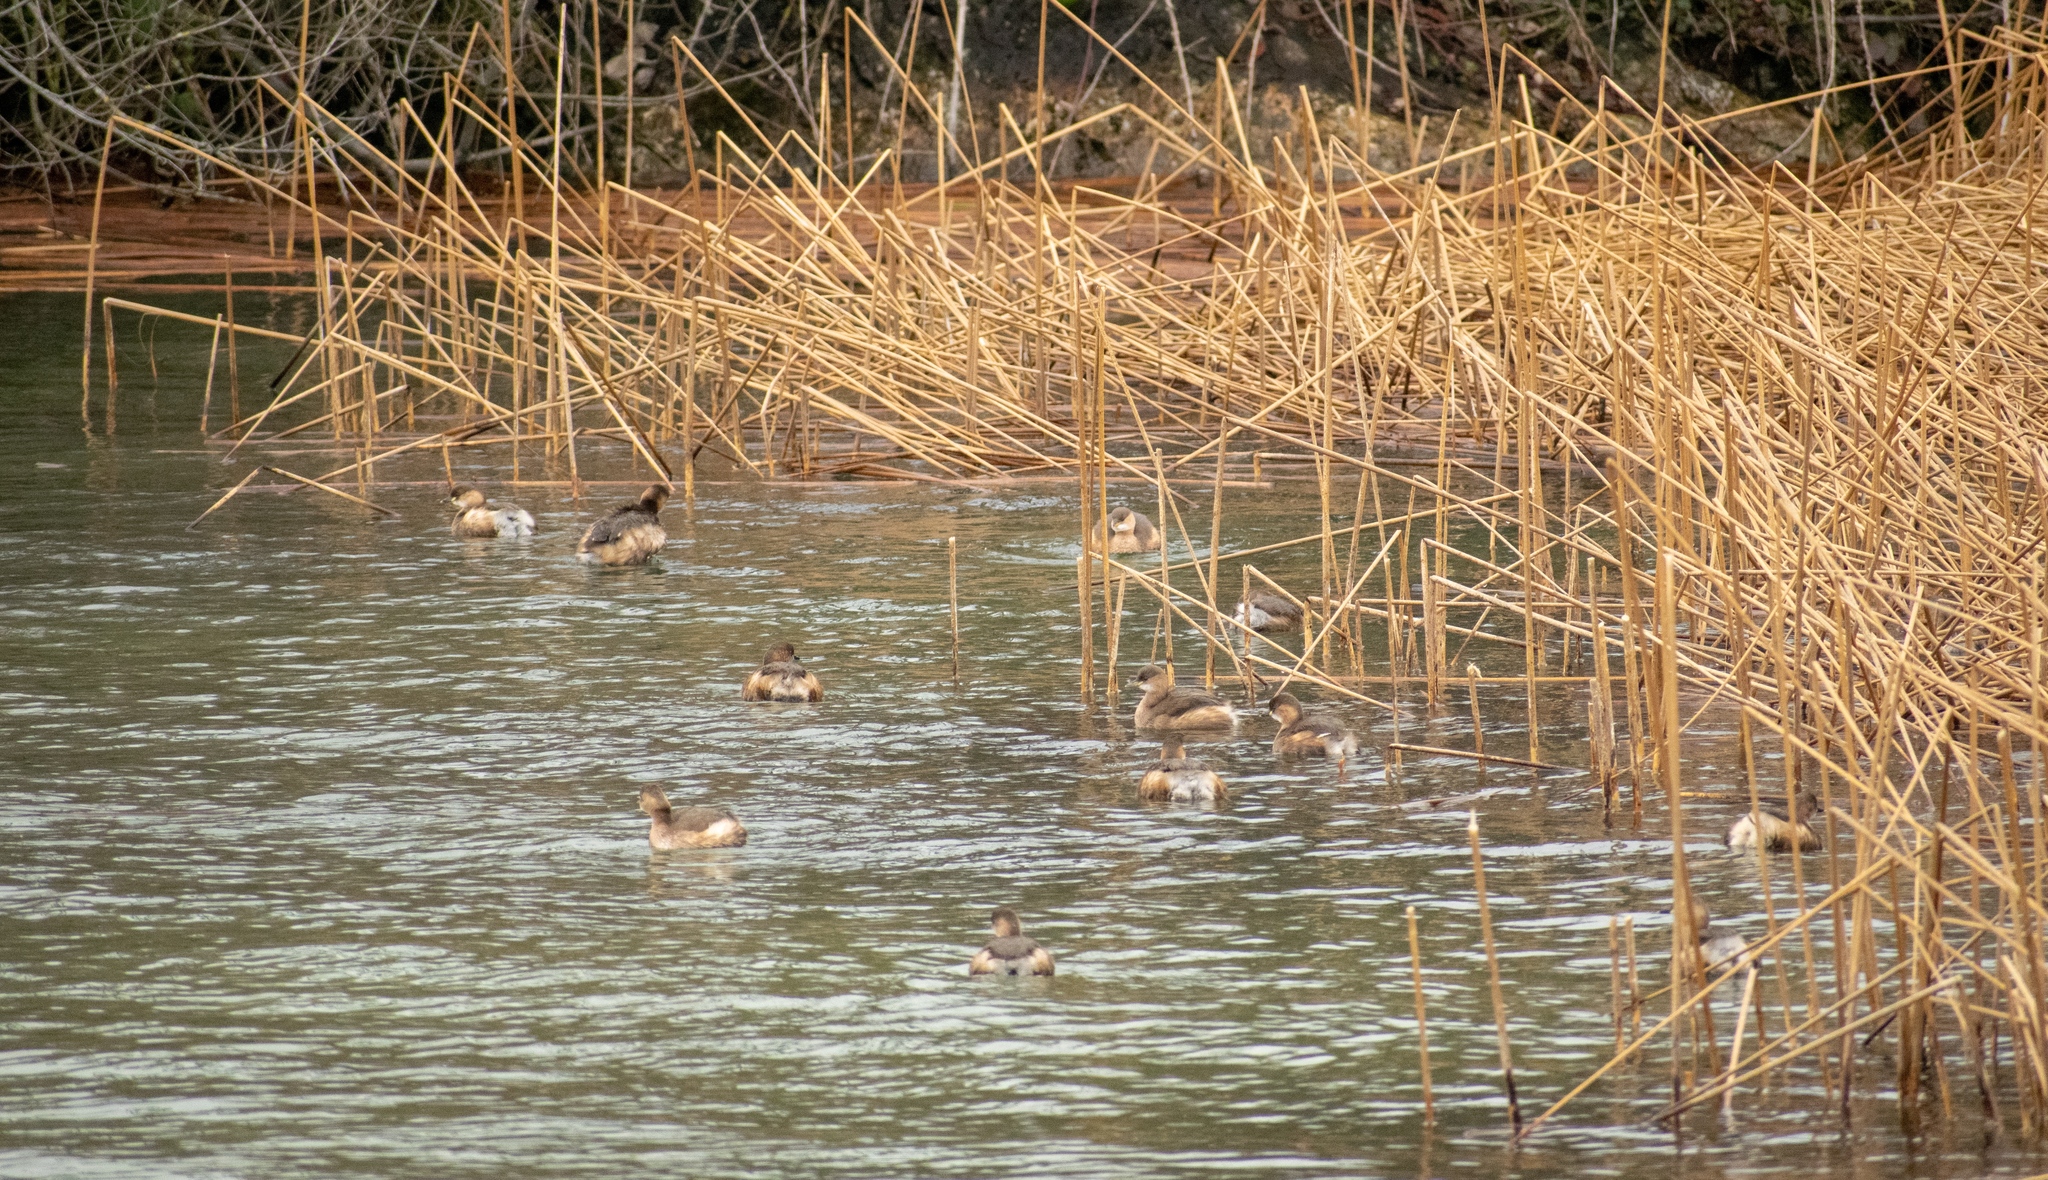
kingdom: Animalia
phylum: Chordata
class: Aves
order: Podicipediformes
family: Podicipedidae
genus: Tachybaptus
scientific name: Tachybaptus ruficollis
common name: Little grebe
